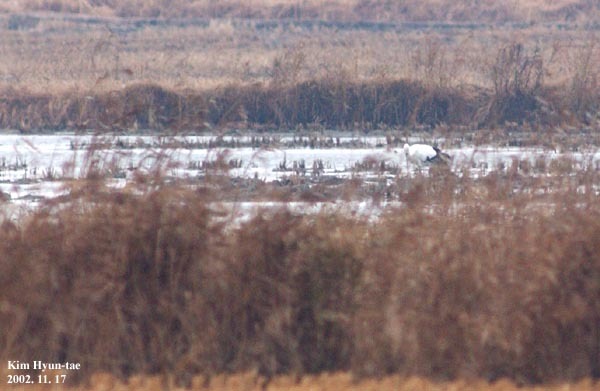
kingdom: Animalia
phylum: Chordata
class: Aves
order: Ciconiiformes
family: Ciconiidae
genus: Ciconia
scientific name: Ciconia boyciana
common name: Oriental stork
